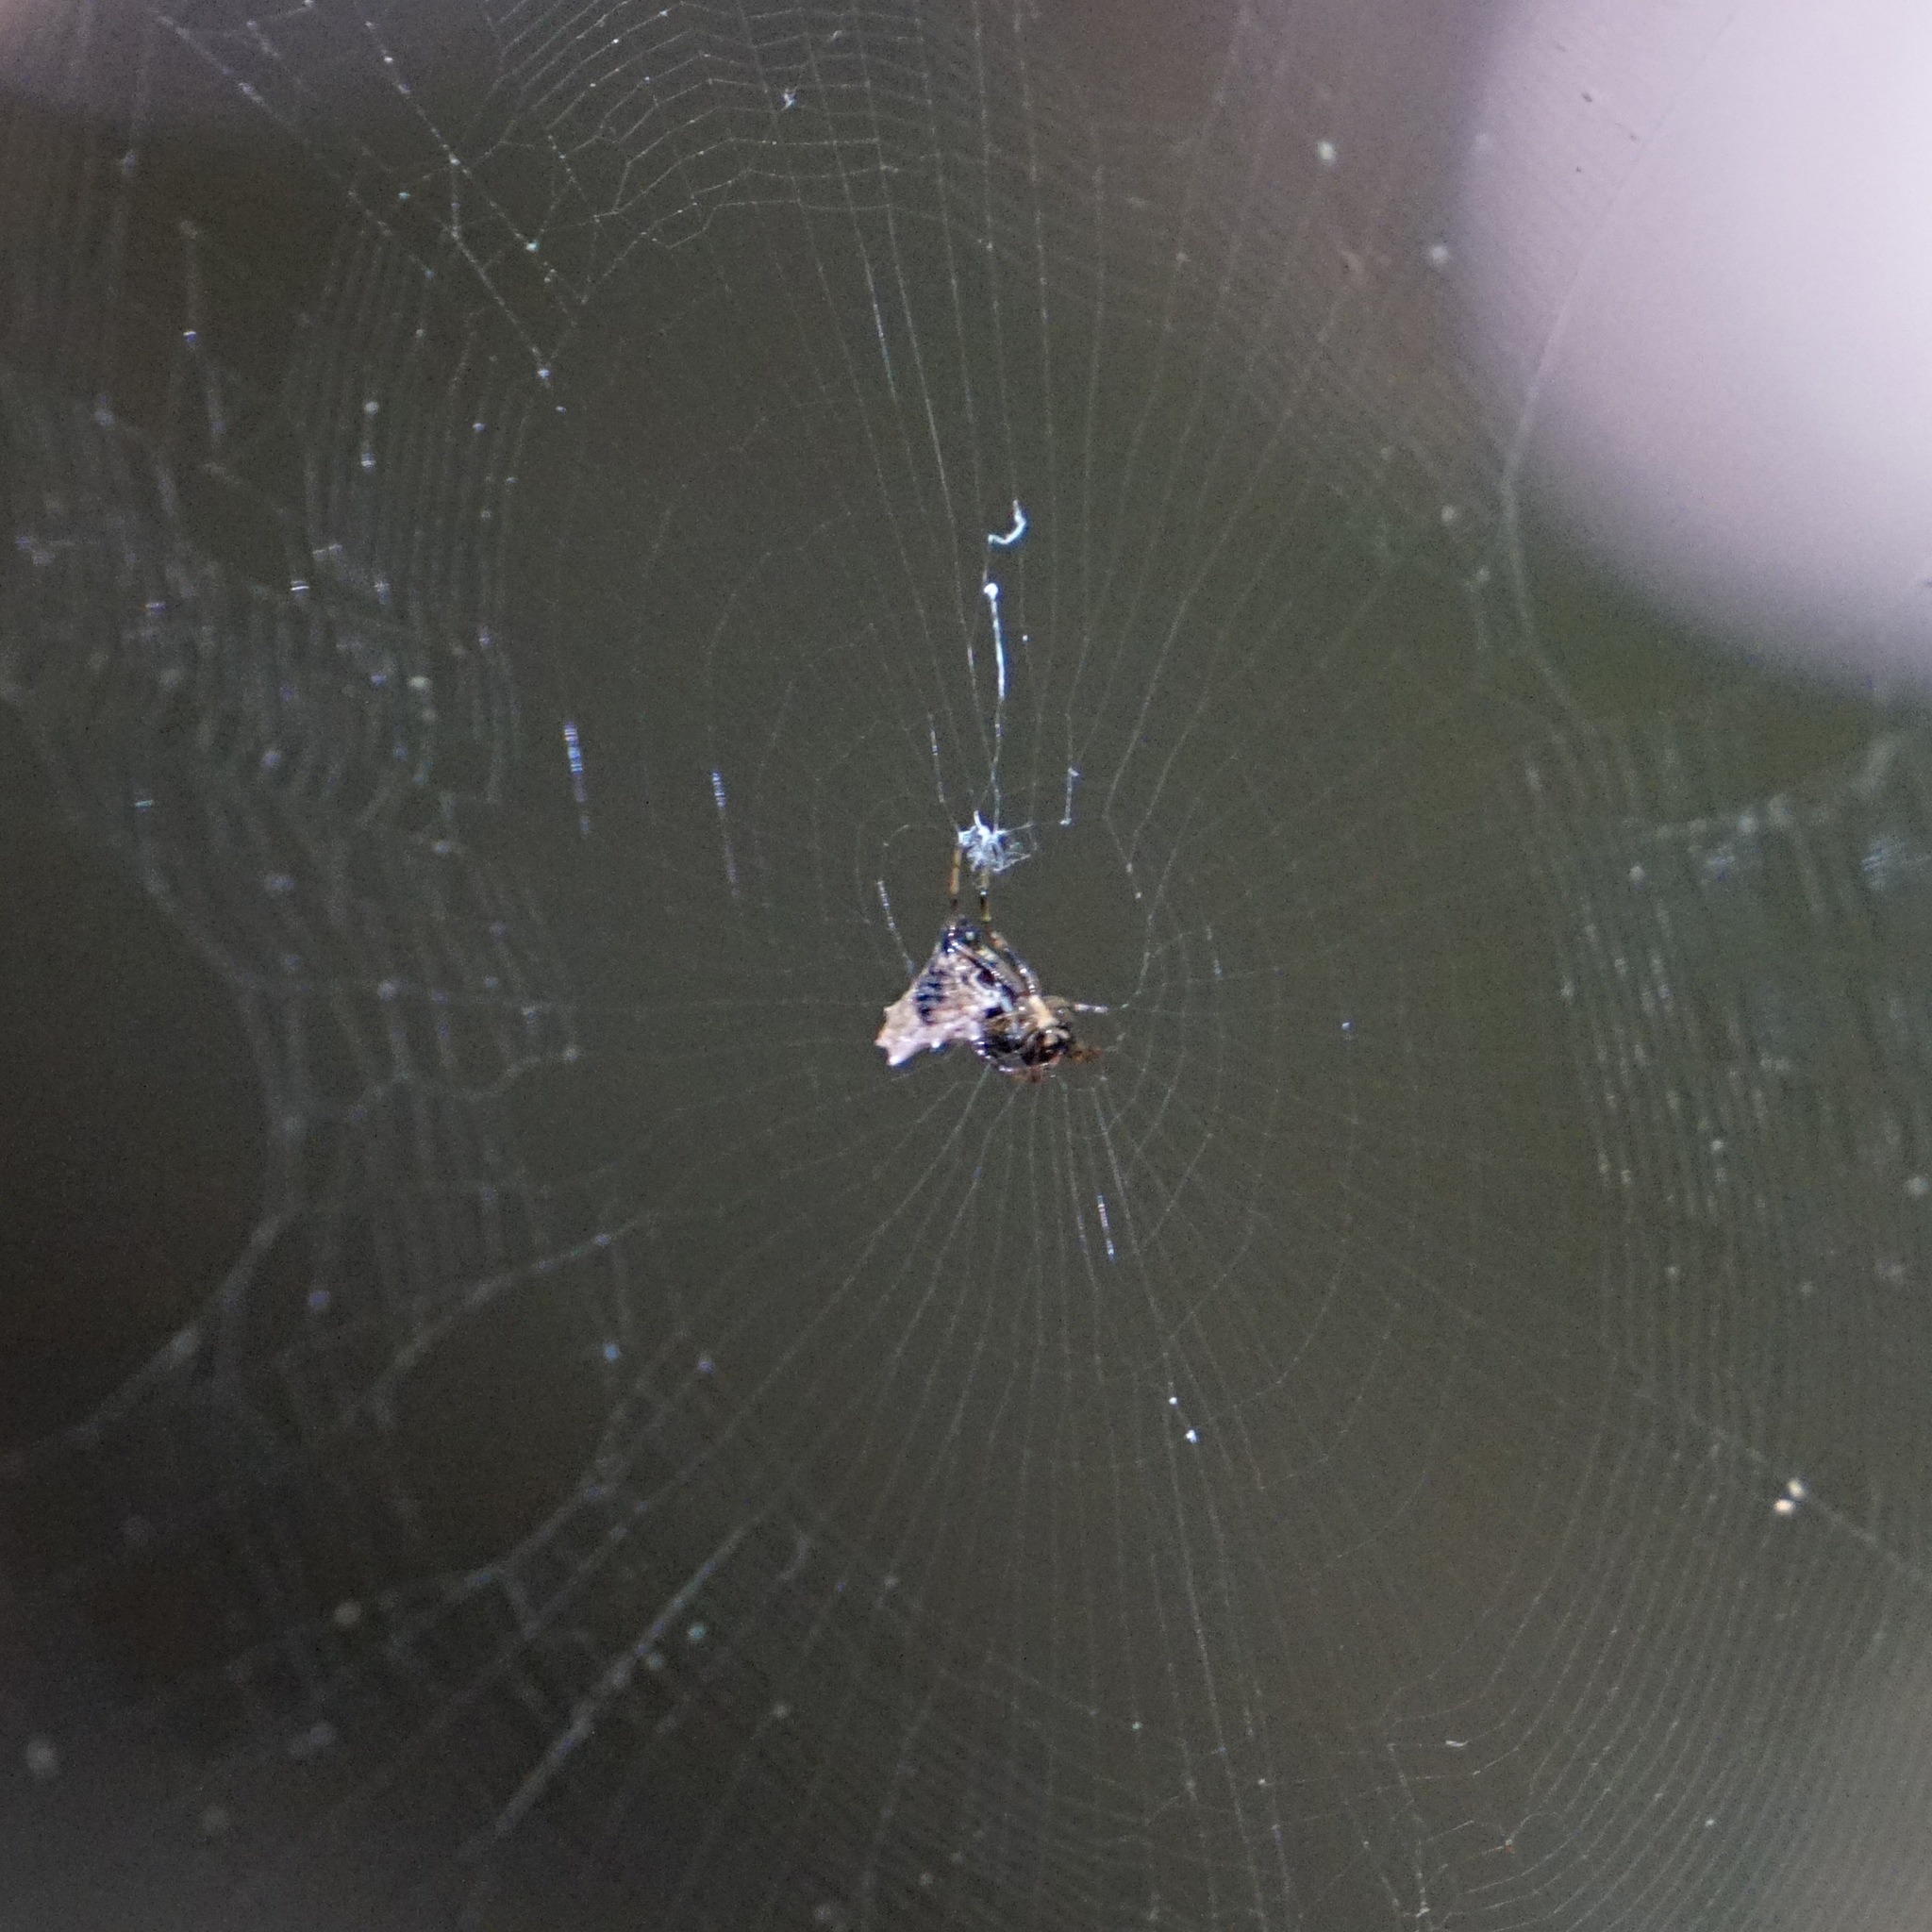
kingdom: Animalia
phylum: Arthropoda
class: Arachnida
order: Araneae
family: Araneidae
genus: Micrathena
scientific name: Micrathena gracilis
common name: Orb weavers
